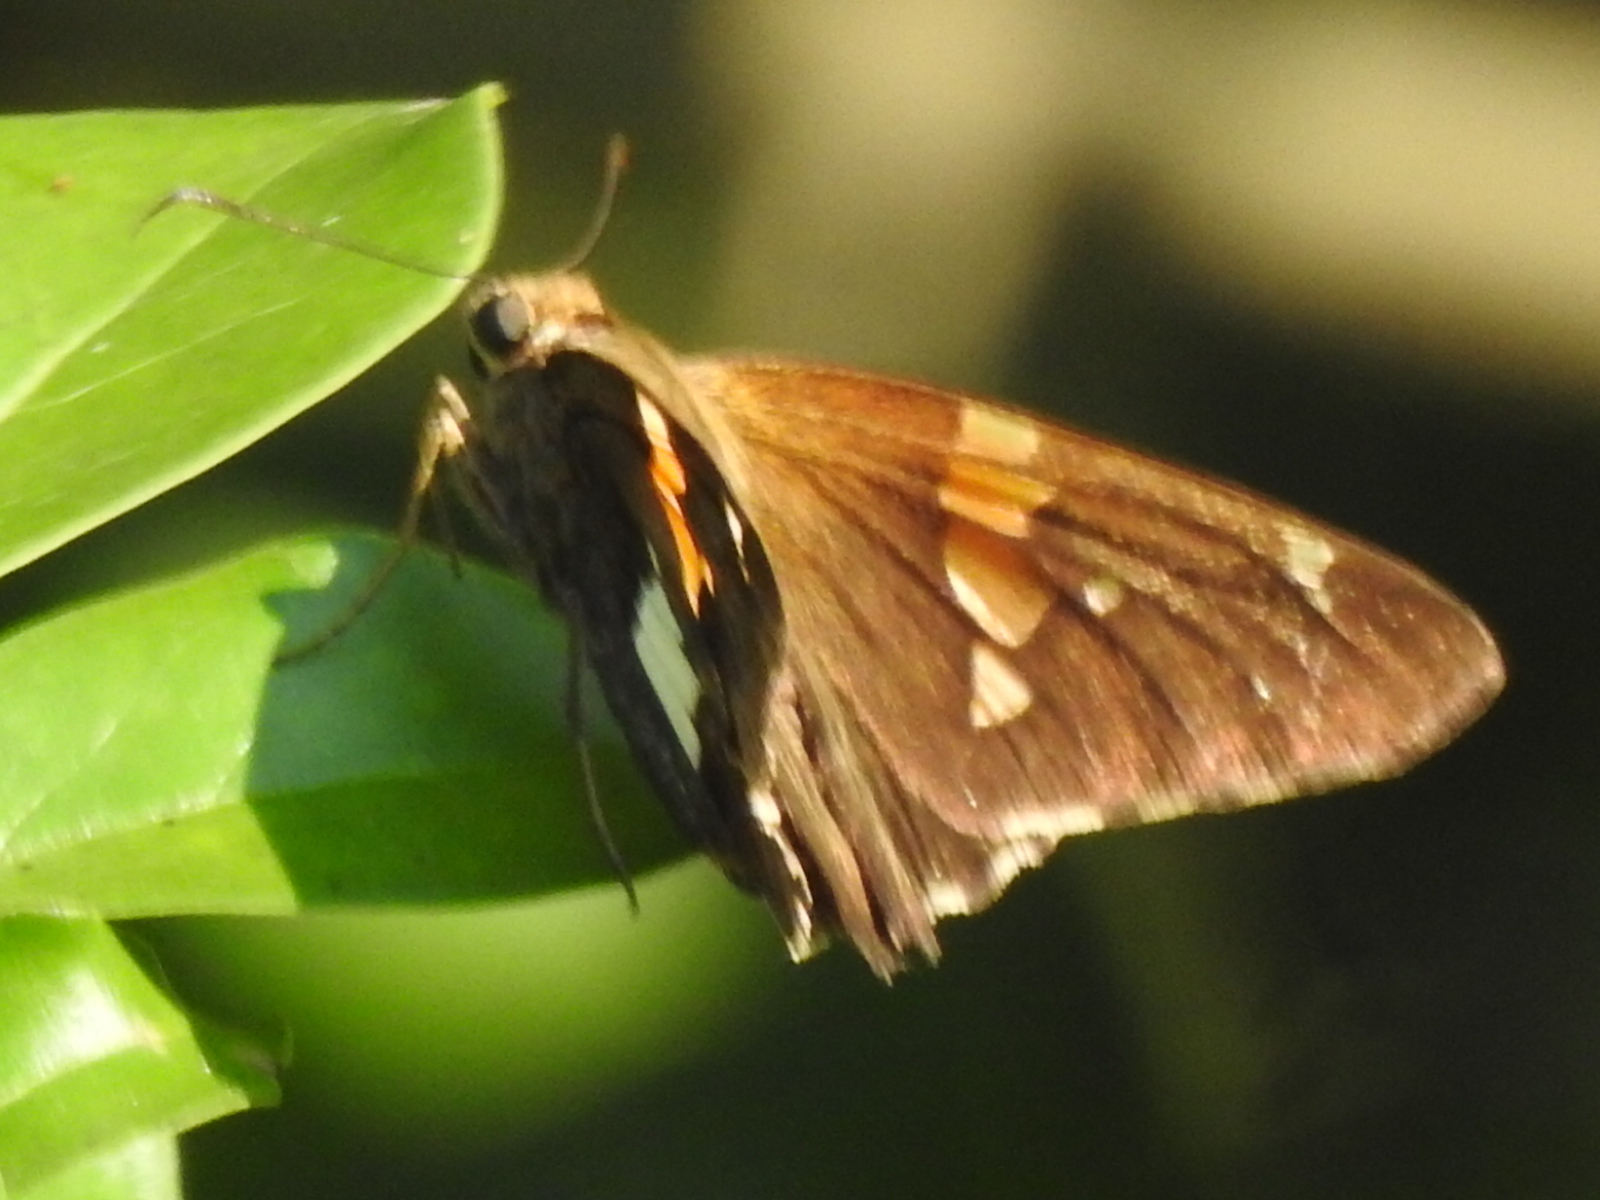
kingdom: Animalia
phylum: Arthropoda
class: Insecta
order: Lepidoptera
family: Hesperiidae
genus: Epargyreus
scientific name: Epargyreus clarus
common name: Silver-spotted skipper
